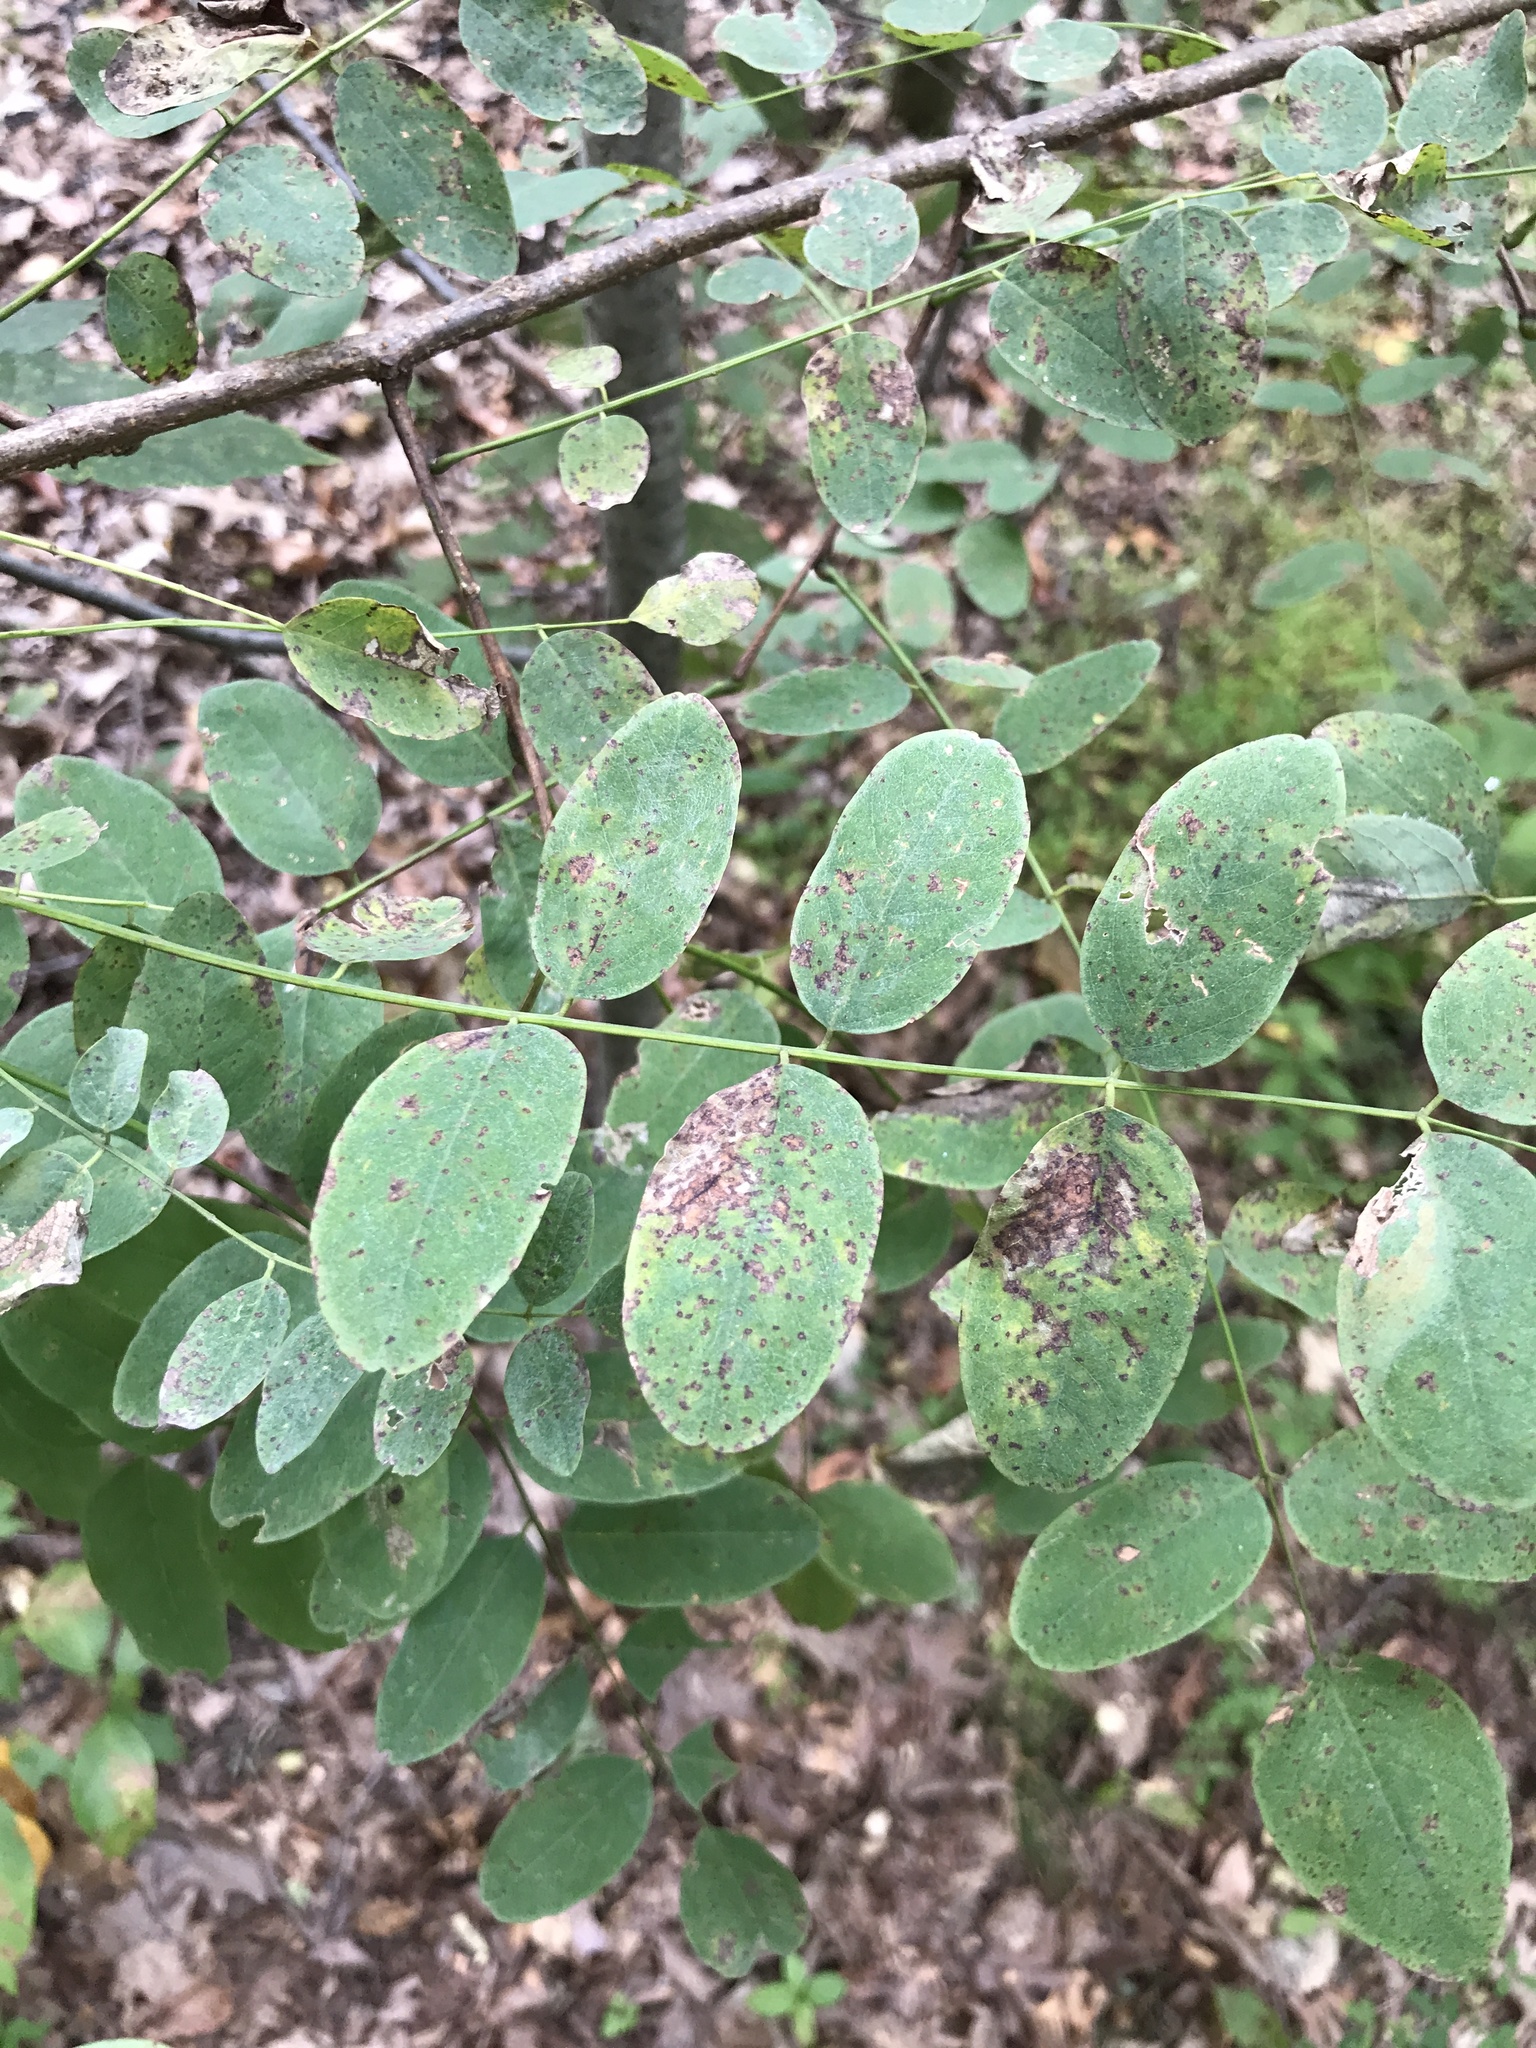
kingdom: Plantae
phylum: Tracheophyta
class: Magnoliopsida
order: Fabales
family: Fabaceae
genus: Robinia
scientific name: Robinia pseudoacacia
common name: Black locust
